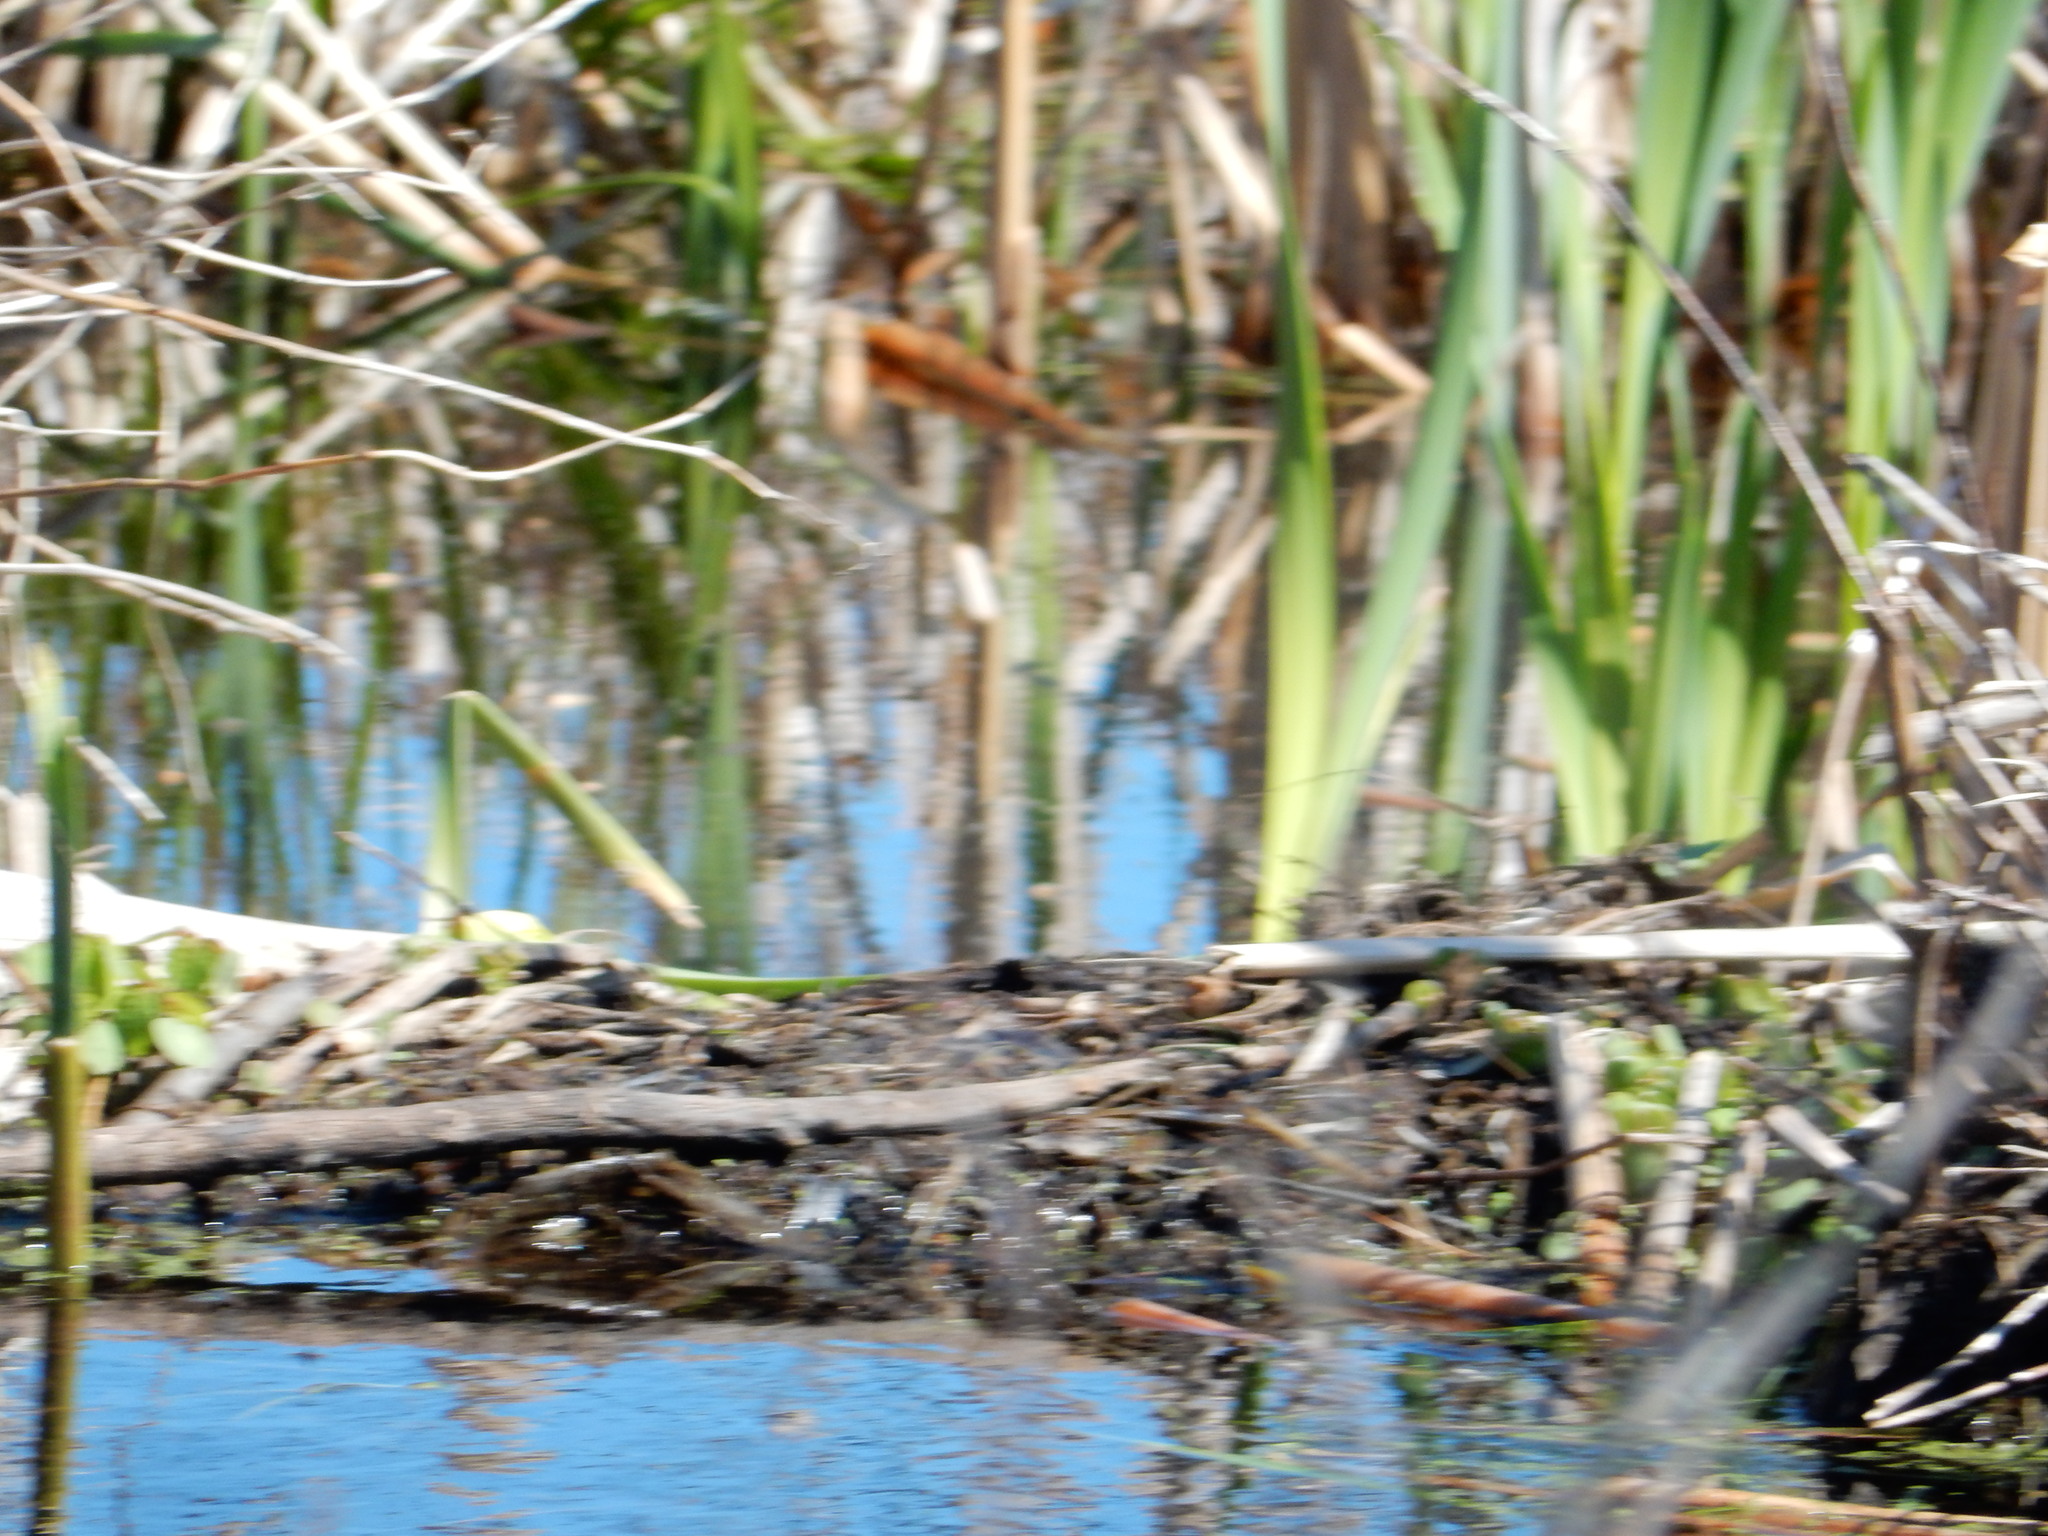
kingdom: Animalia
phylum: Chordata
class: Mammalia
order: Rodentia
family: Castoridae
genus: Castor
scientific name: Castor canadensis
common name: American beaver
